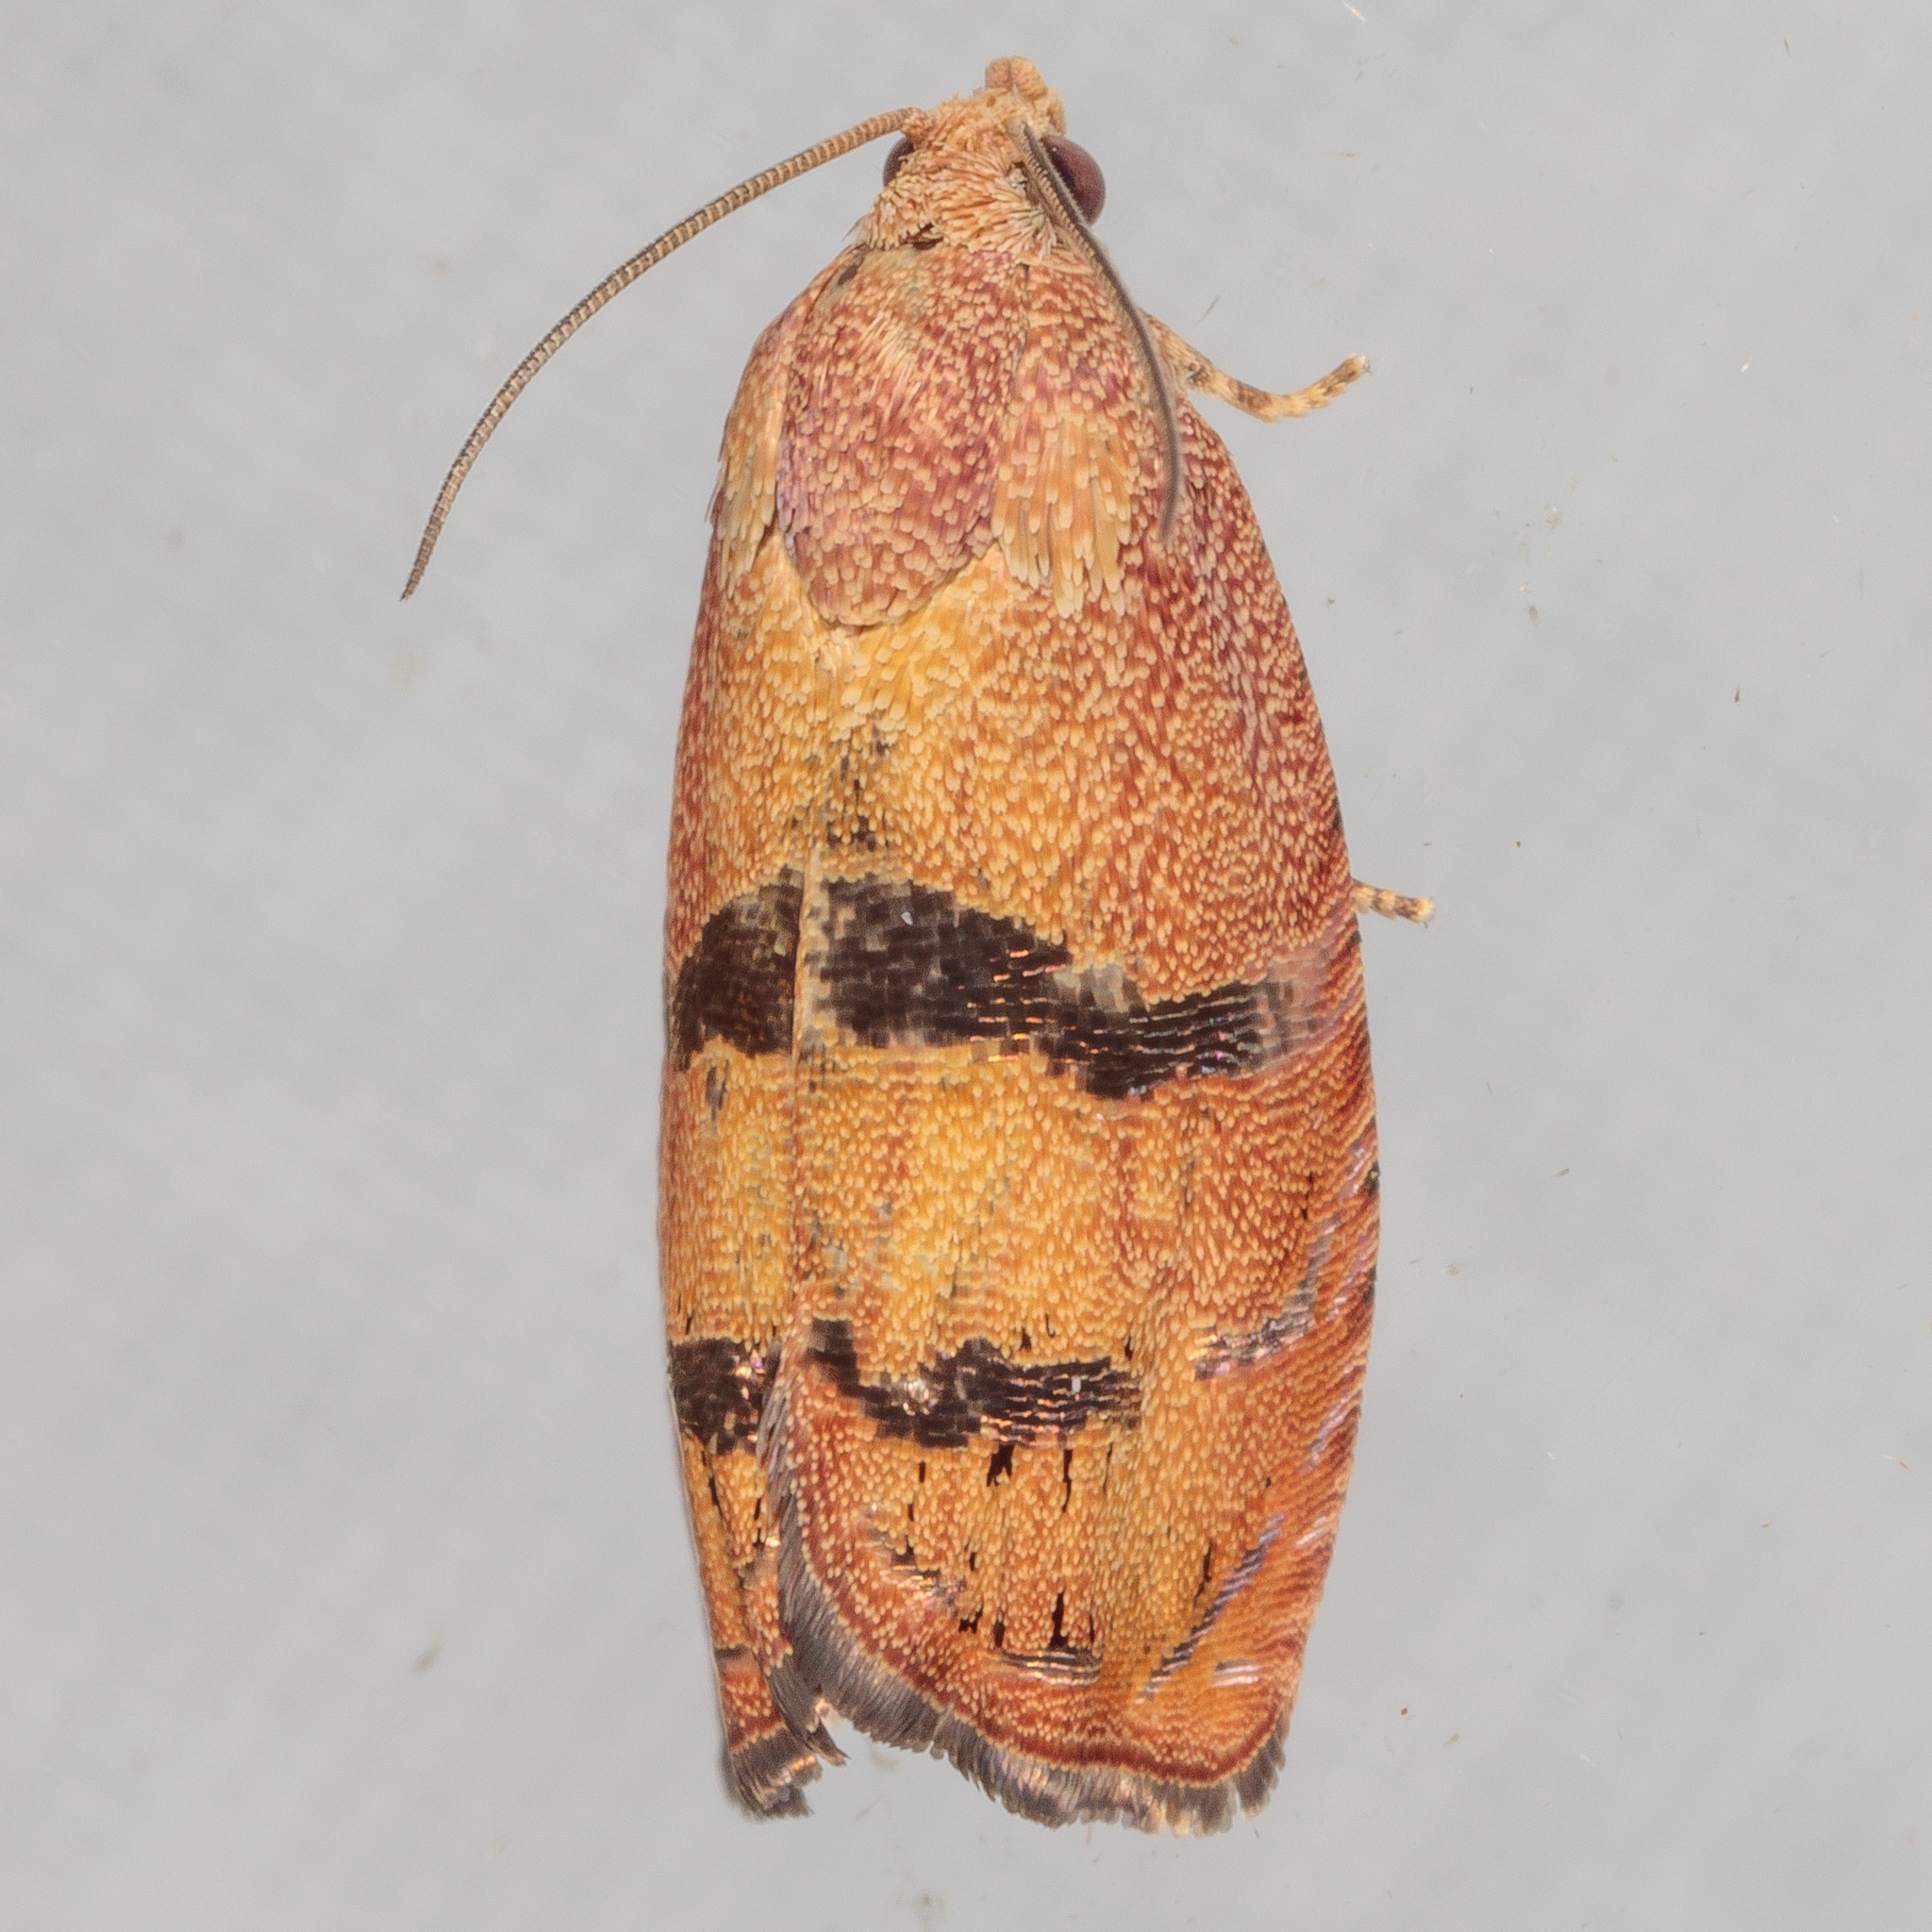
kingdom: Animalia
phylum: Arthropoda
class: Insecta
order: Lepidoptera
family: Tortricidae
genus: Cydia
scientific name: Cydia latiferreana
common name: Filbertworm moth
